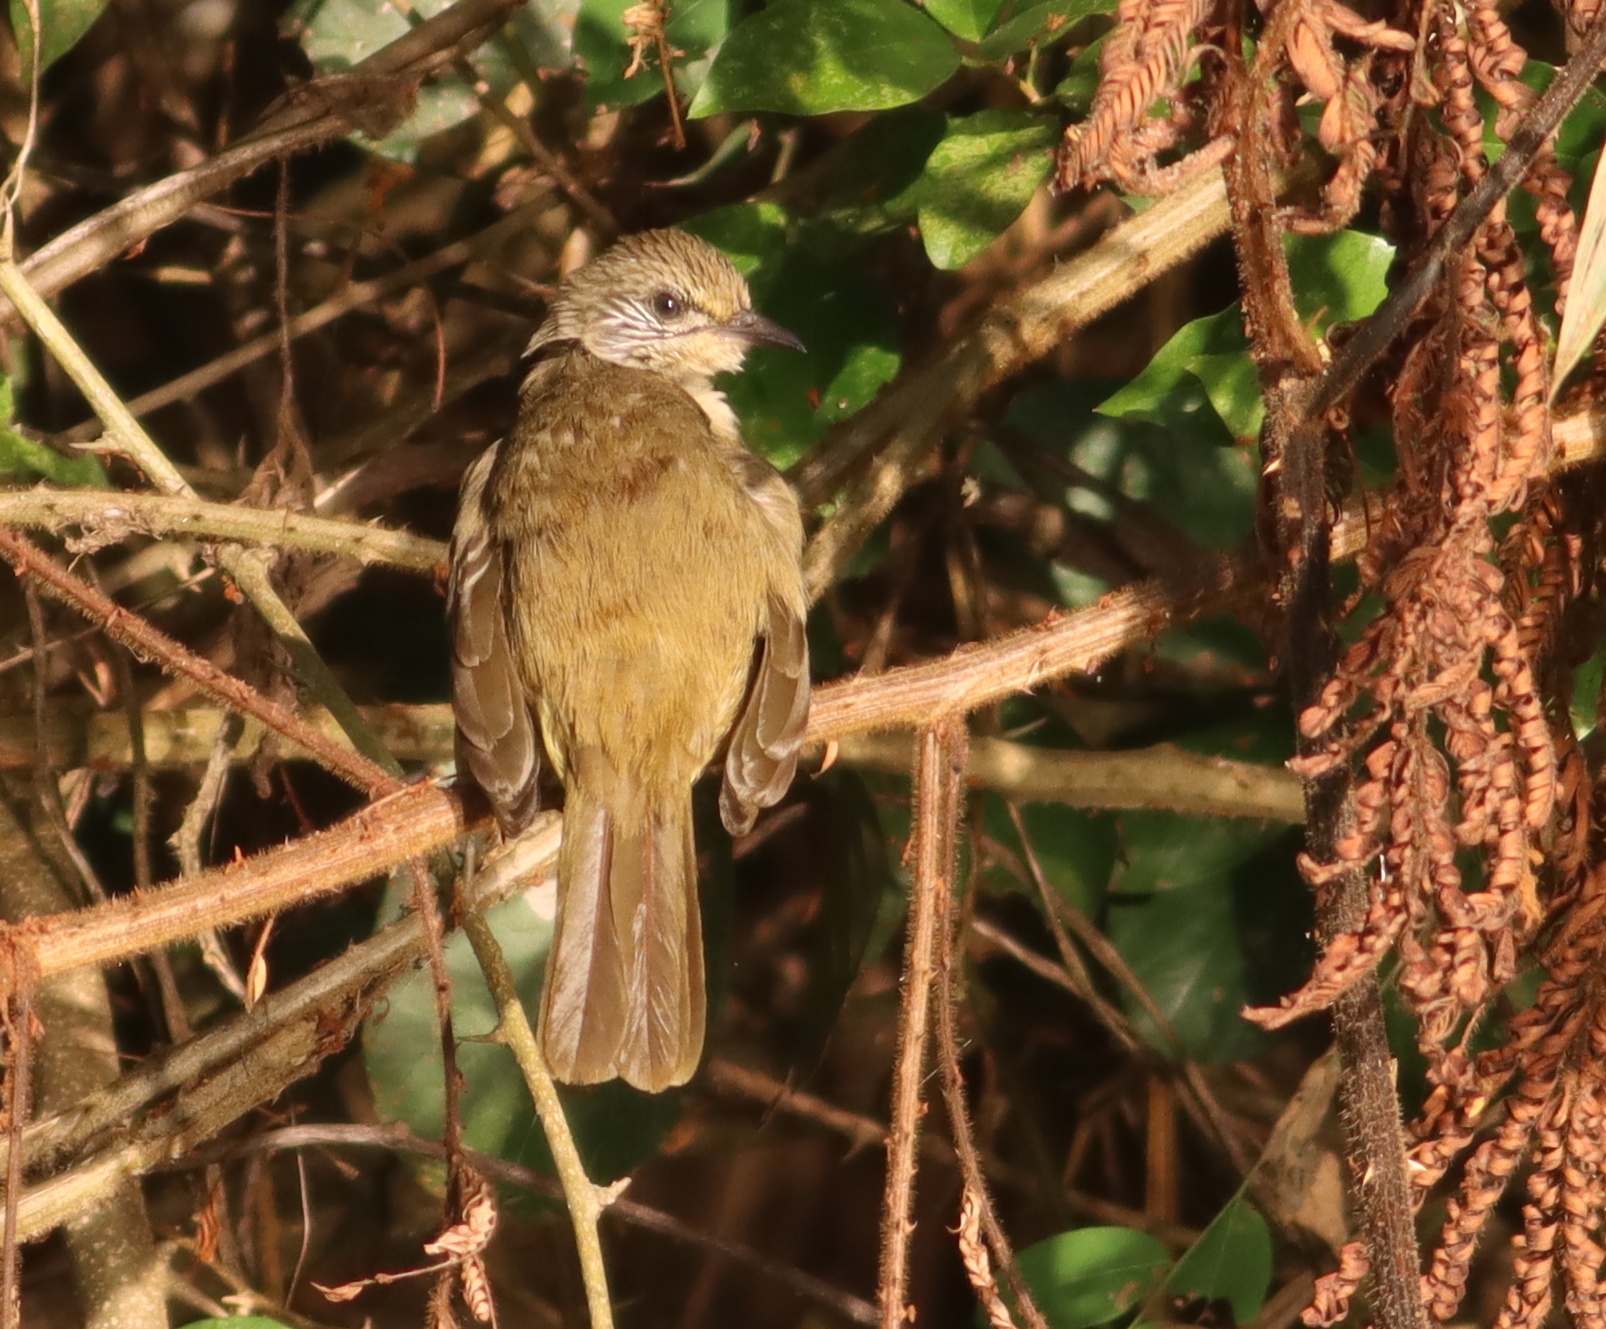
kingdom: Animalia
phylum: Chordata
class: Aves
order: Passeriformes
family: Pycnonotidae
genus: Pycnonotus
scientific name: Pycnonotus blanfordi
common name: Streak-eared bulbul
